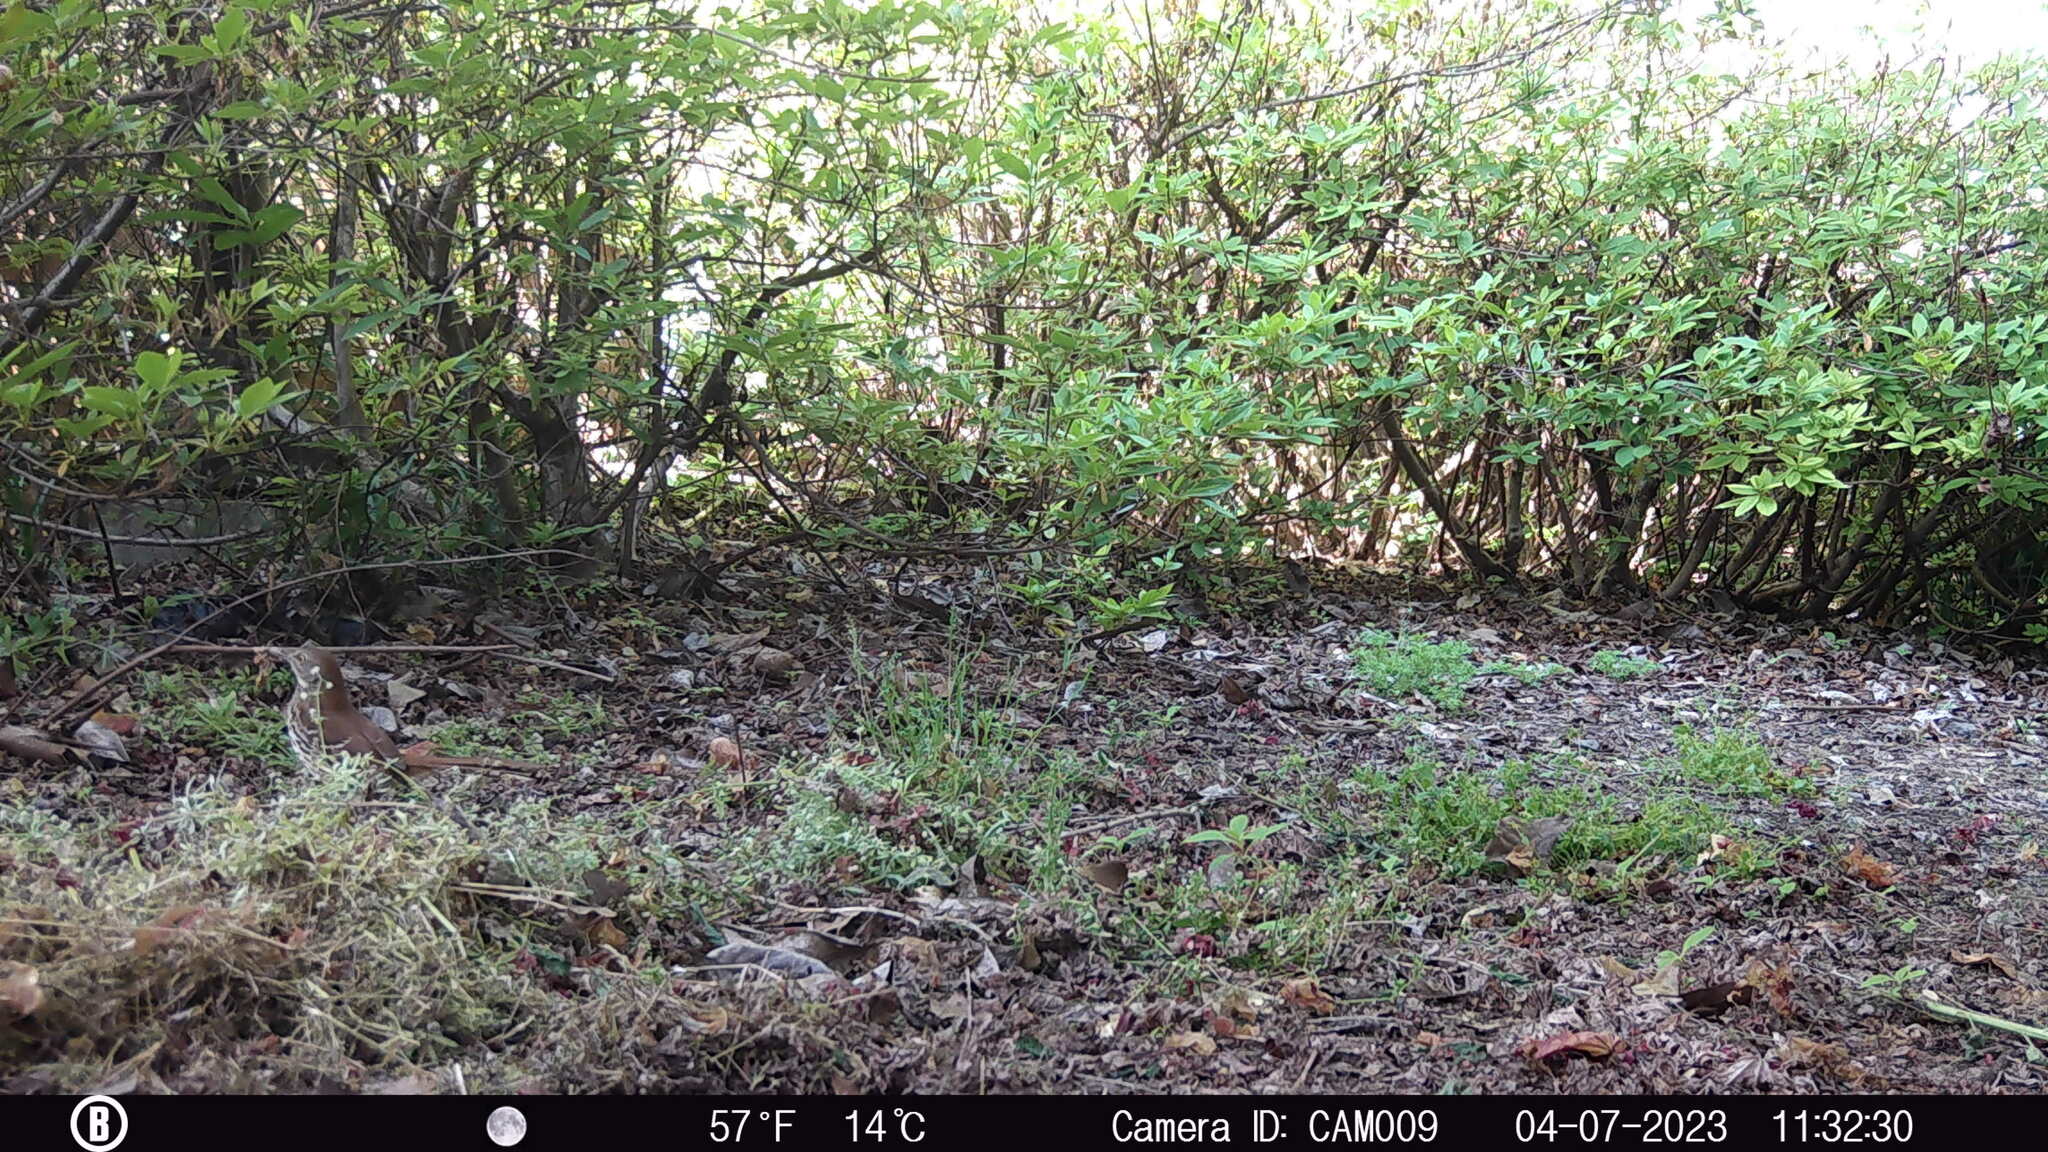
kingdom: Animalia
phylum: Chordata
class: Aves
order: Passeriformes
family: Mimidae
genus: Toxostoma
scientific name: Toxostoma rufum
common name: Brown thrasher
